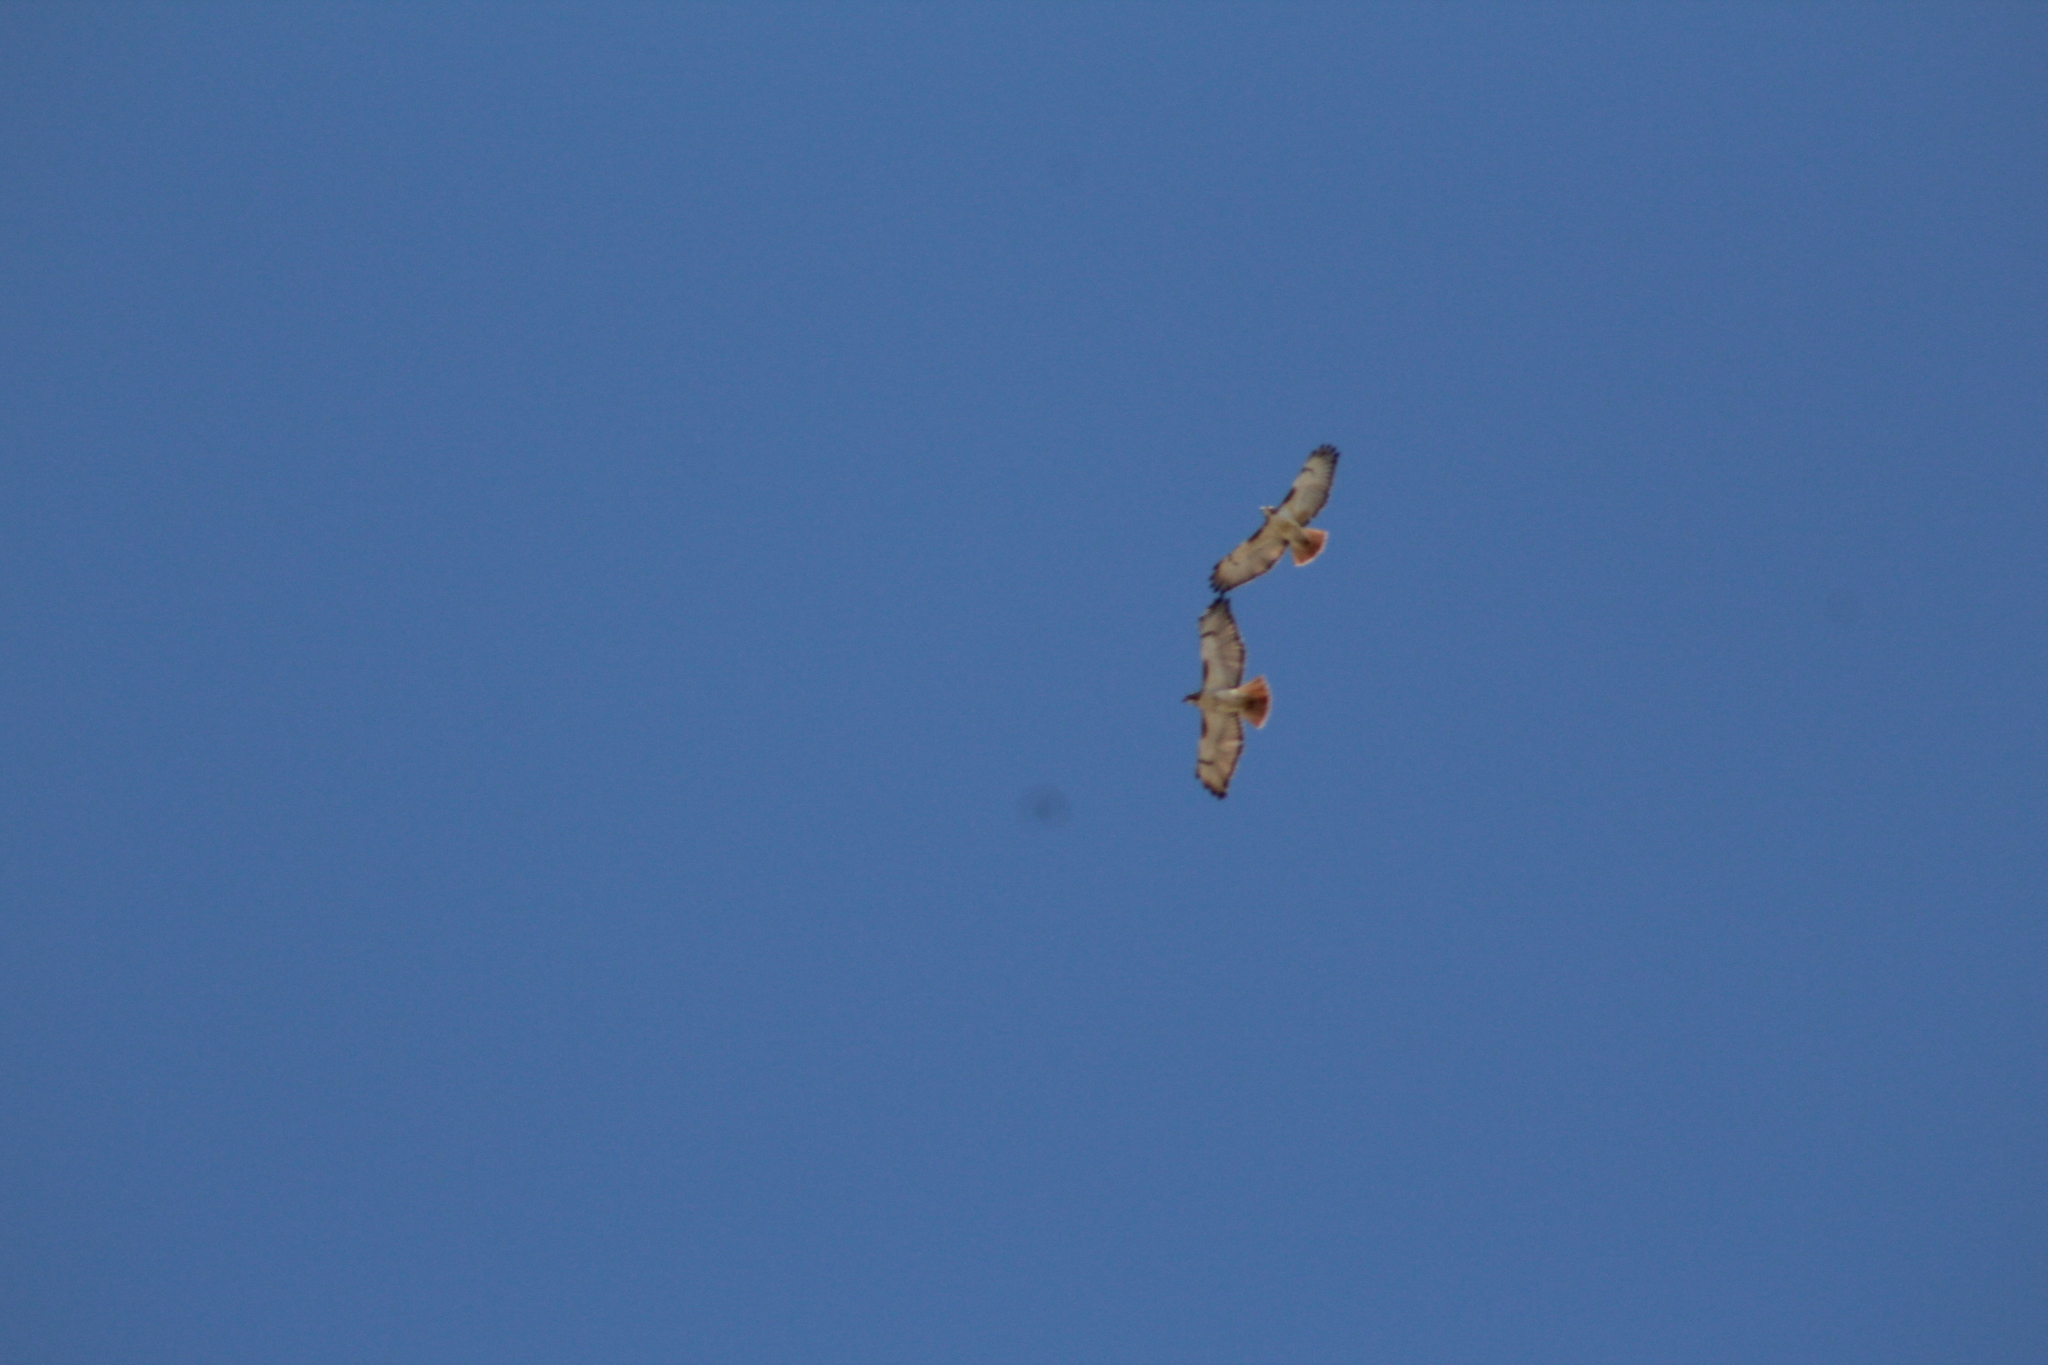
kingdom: Animalia
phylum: Chordata
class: Aves
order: Accipitriformes
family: Accipitridae
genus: Buteo
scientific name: Buteo jamaicensis
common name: Red-tailed hawk
